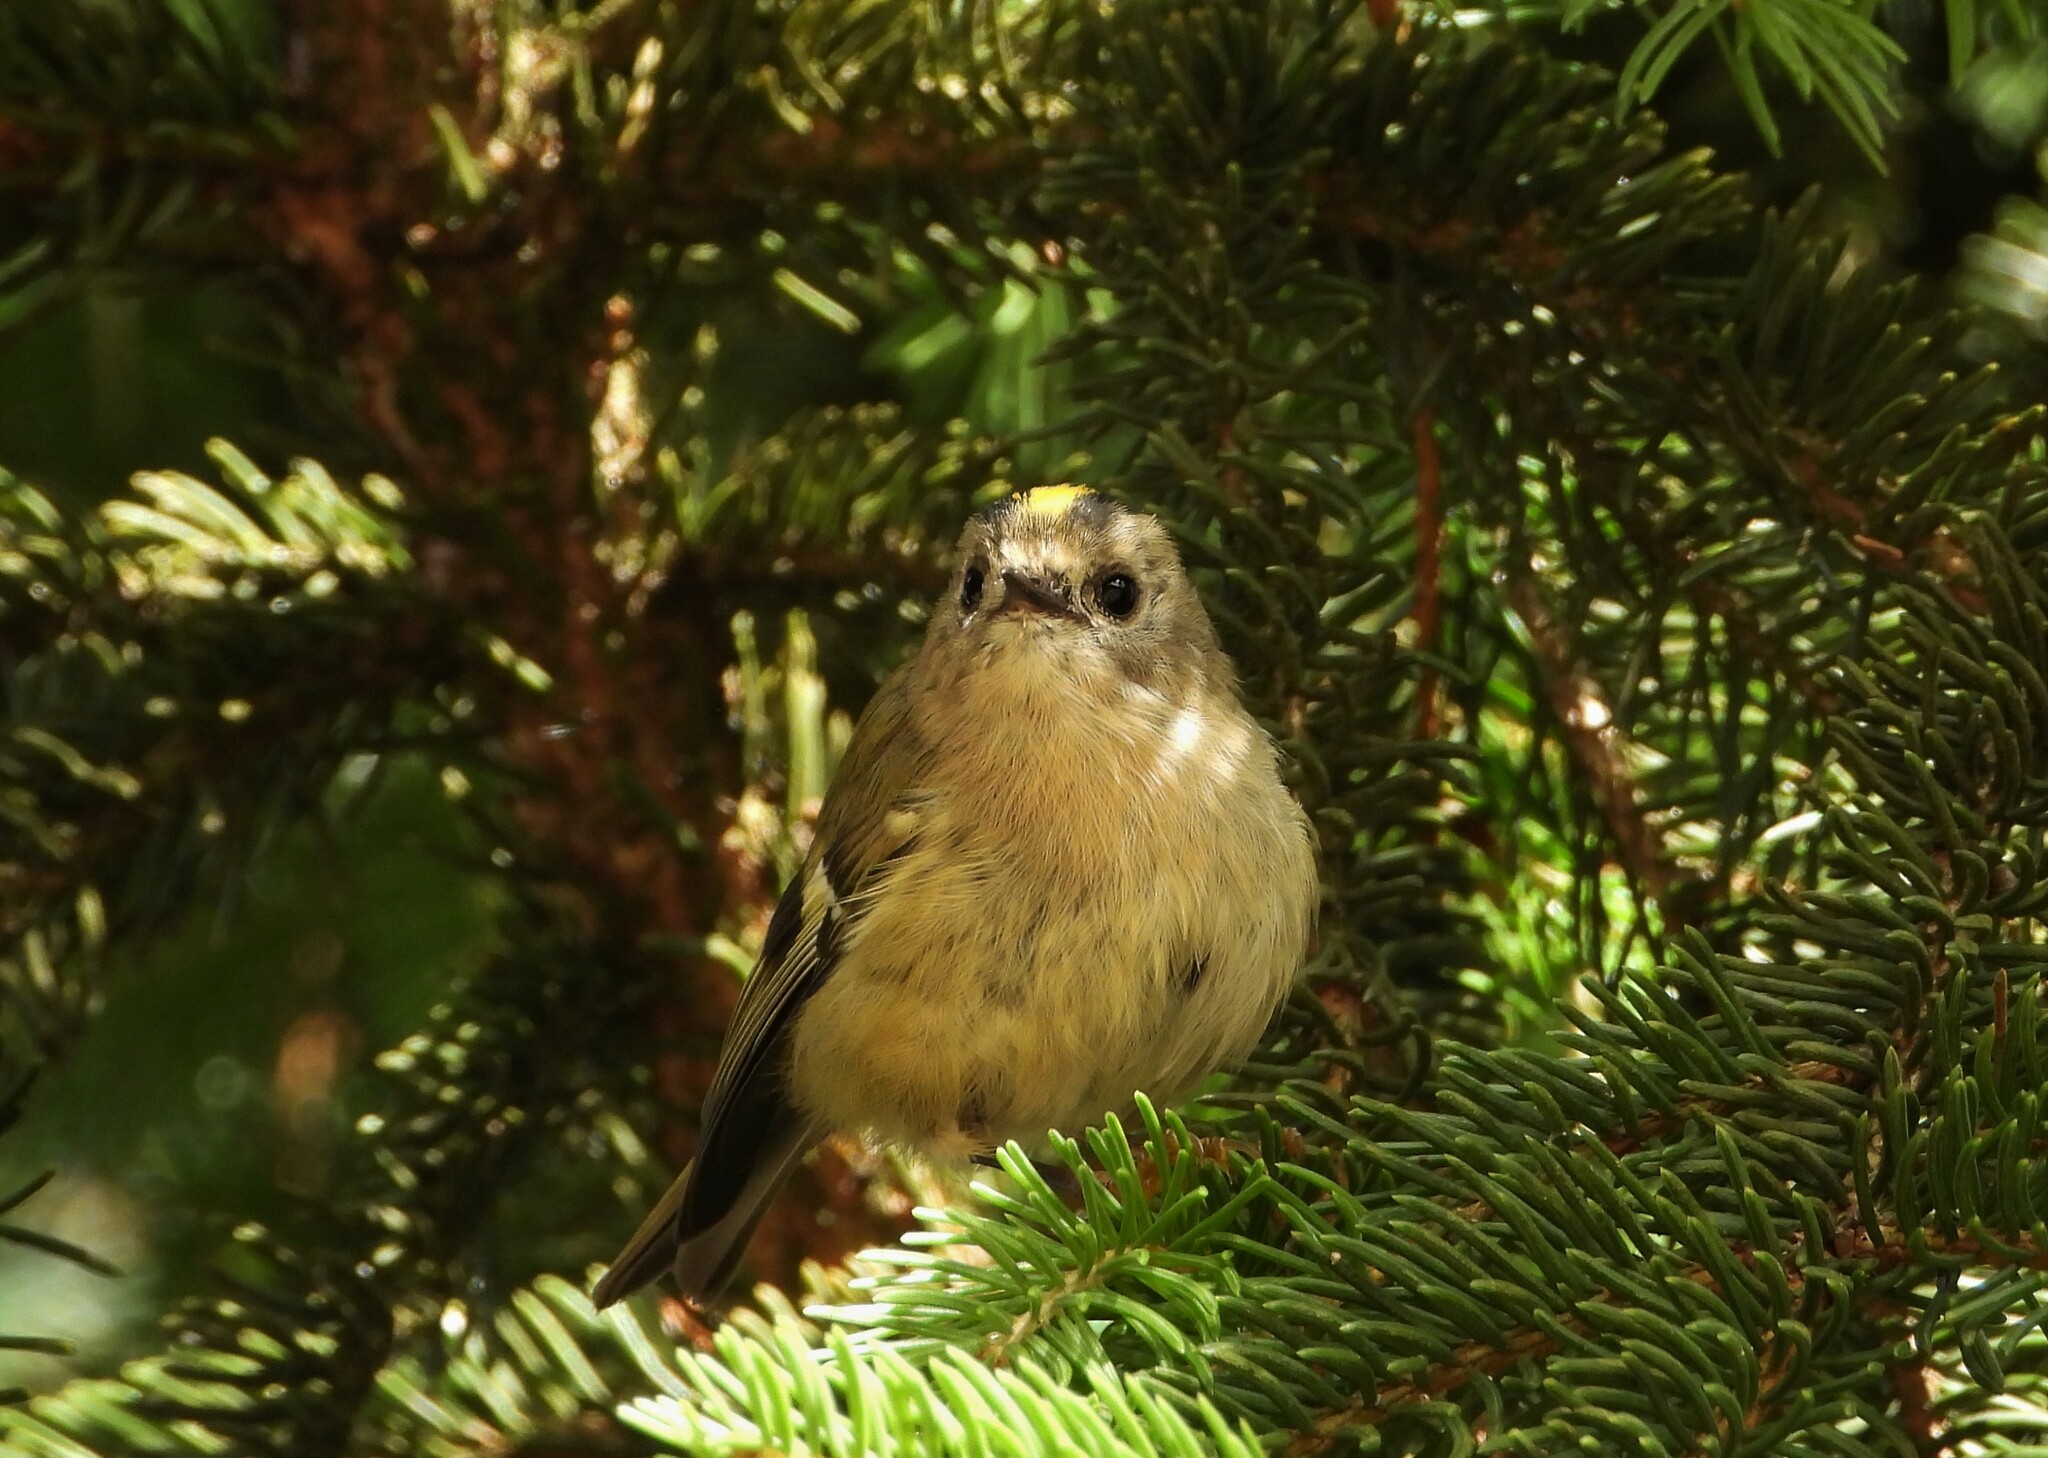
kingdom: Animalia
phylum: Chordata
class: Aves
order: Passeriformes
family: Regulidae
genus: Regulus
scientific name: Regulus regulus
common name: Goldcrest
